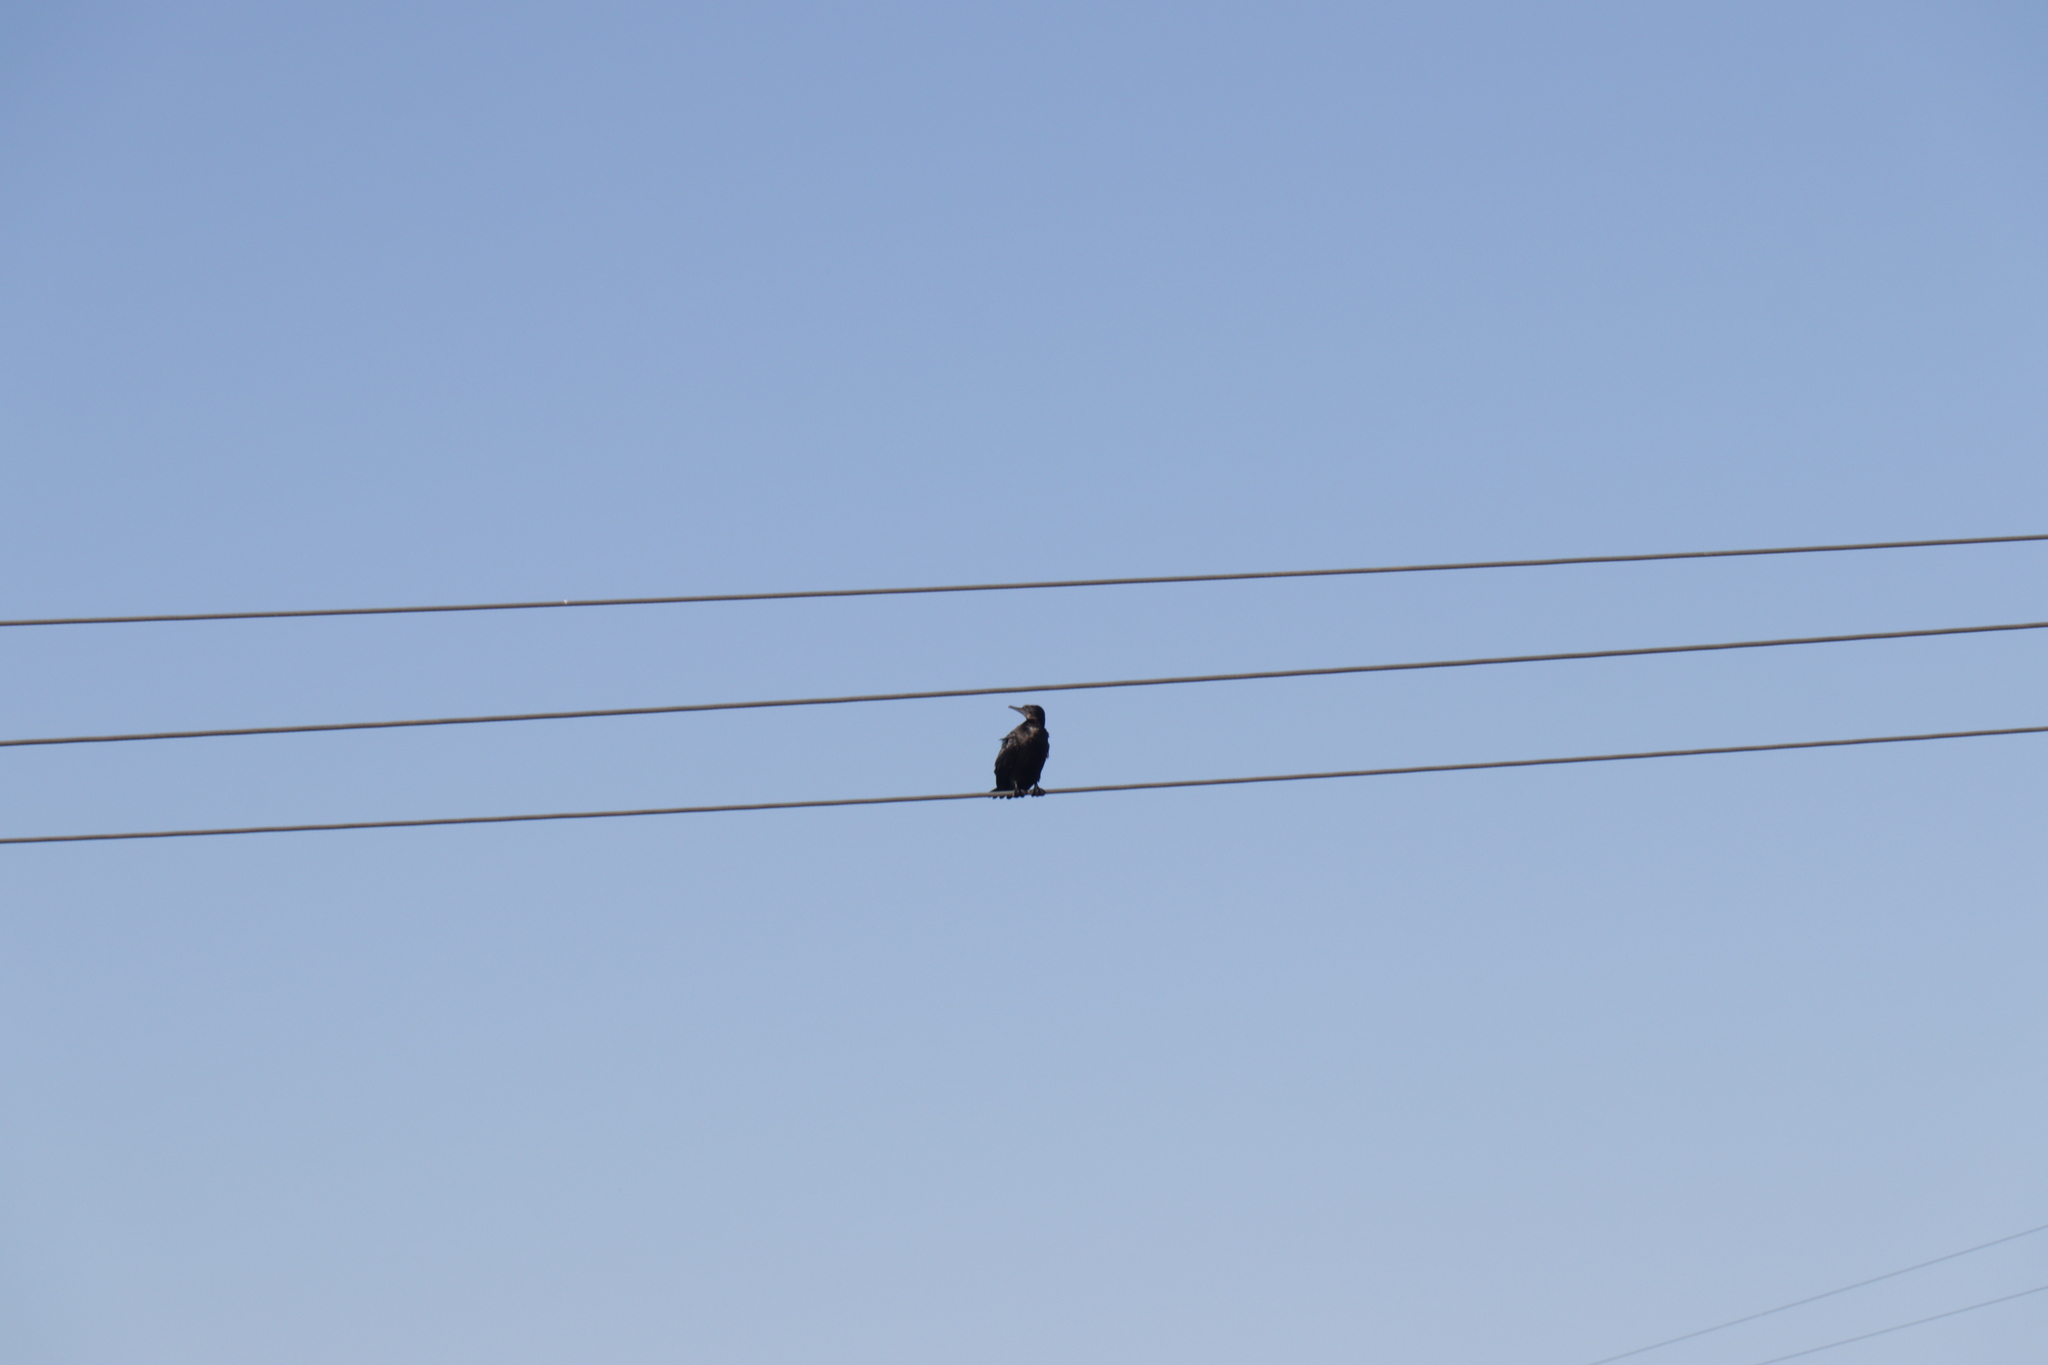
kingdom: Animalia
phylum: Chordata
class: Aves
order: Suliformes
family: Phalacrocoracidae
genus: Phalacrocorax
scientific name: Phalacrocorax sulcirostris
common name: Little black cormorant
